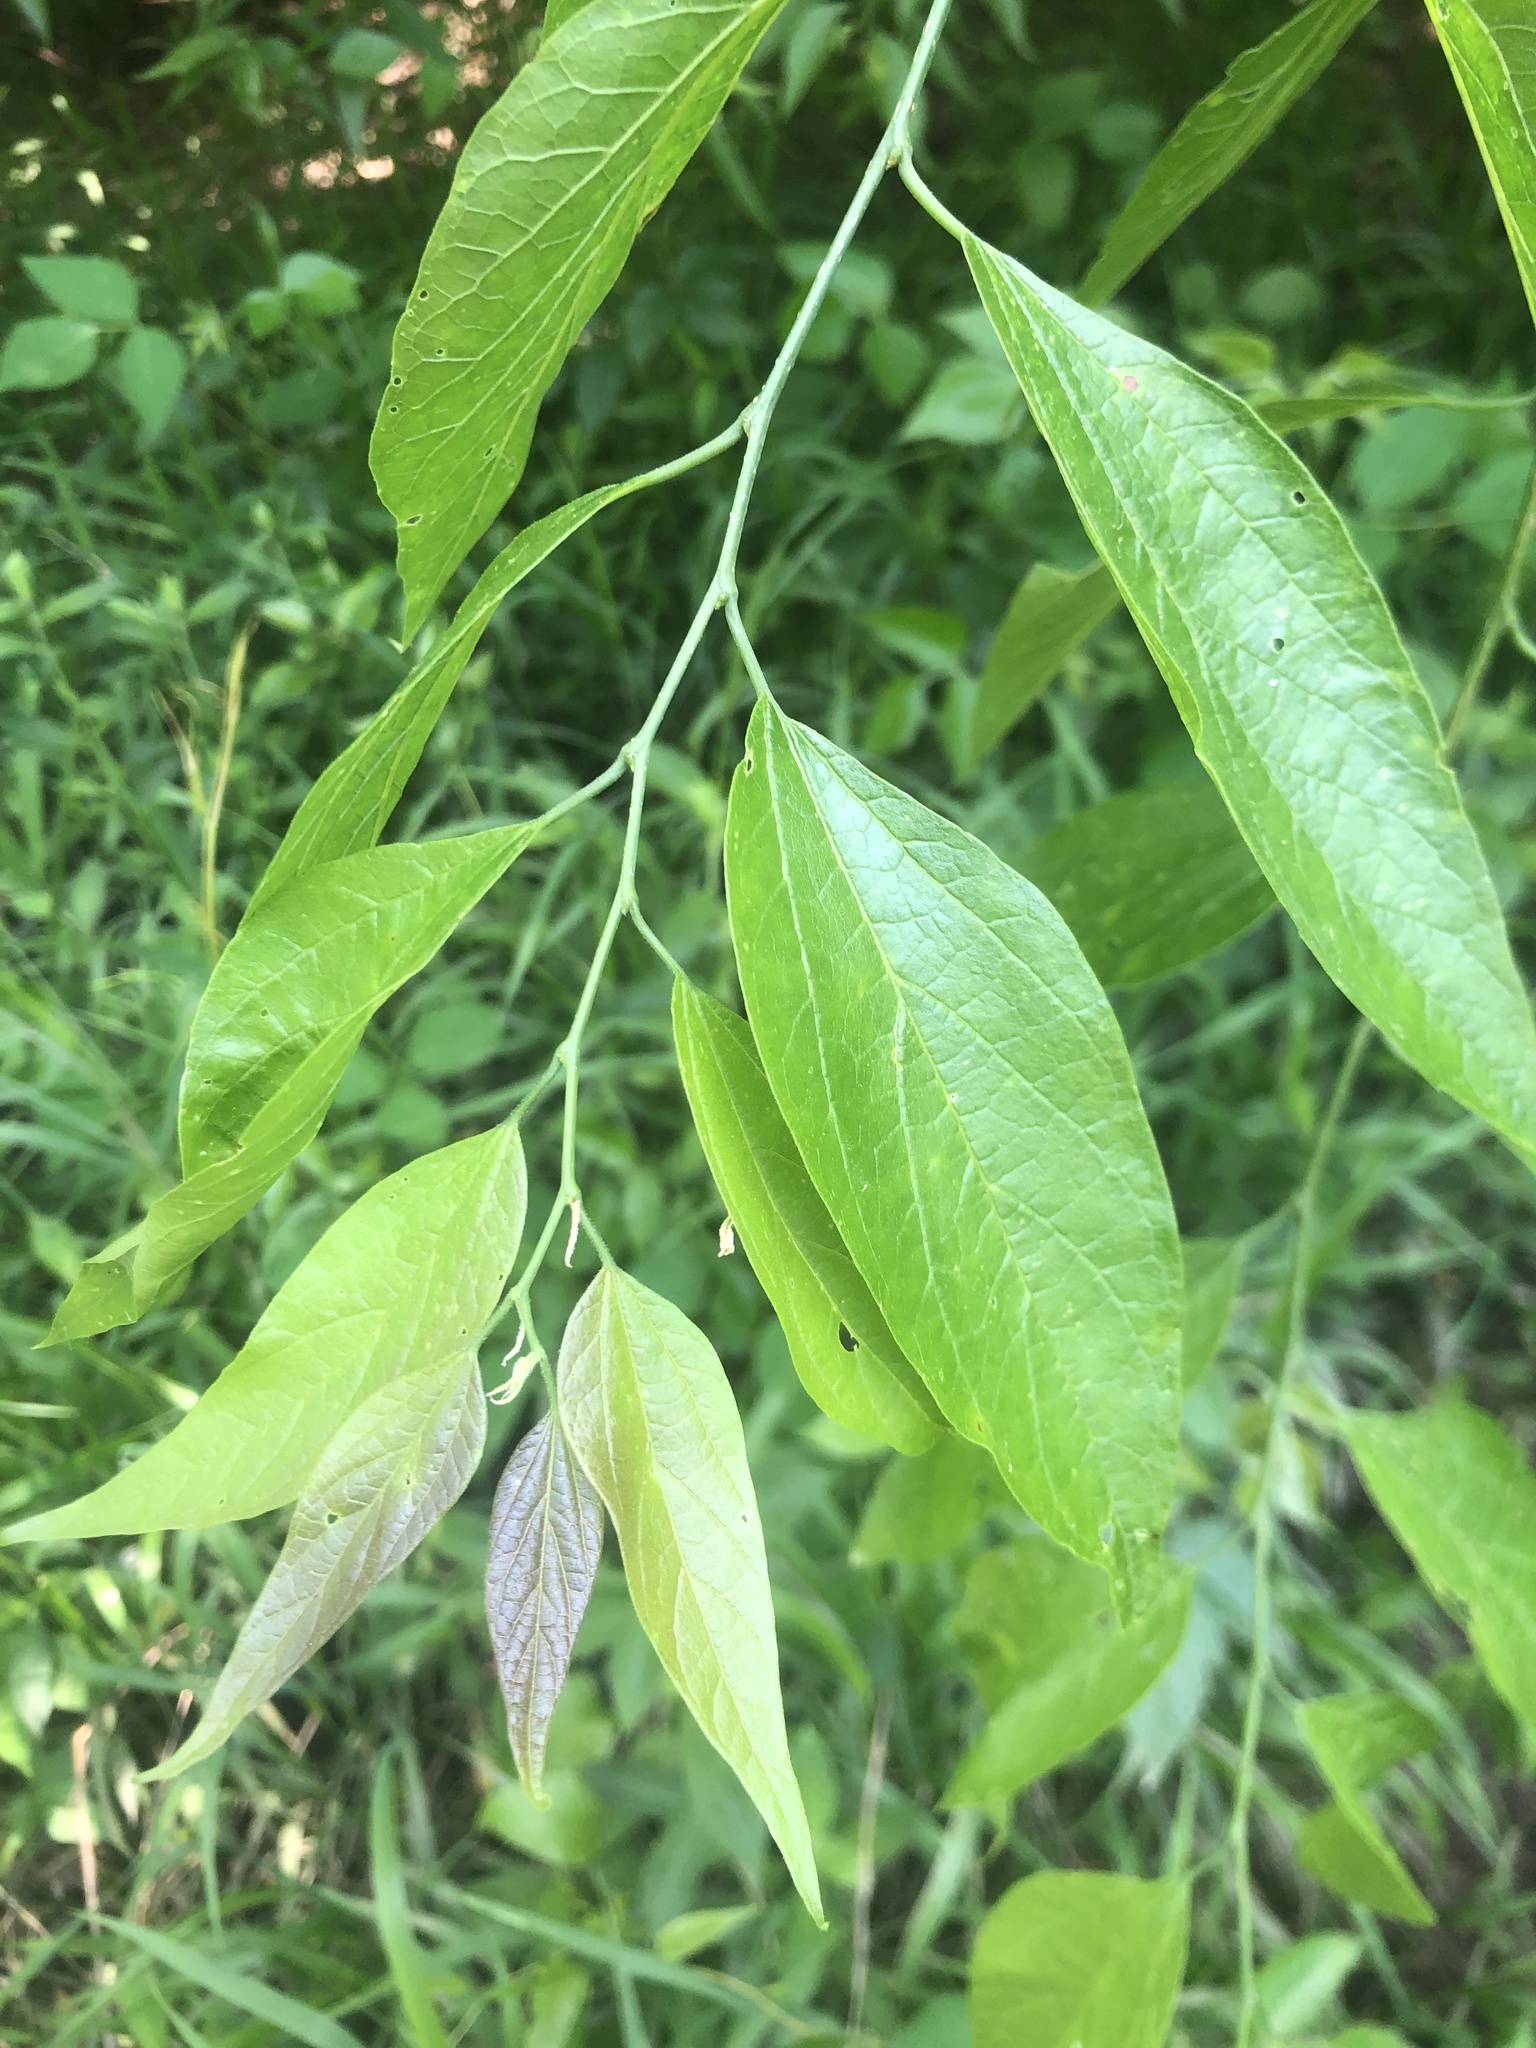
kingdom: Plantae
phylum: Tracheophyta
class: Magnoliopsida
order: Rosales
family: Cannabaceae
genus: Celtis
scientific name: Celtis laevigata
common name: Sugarberry
